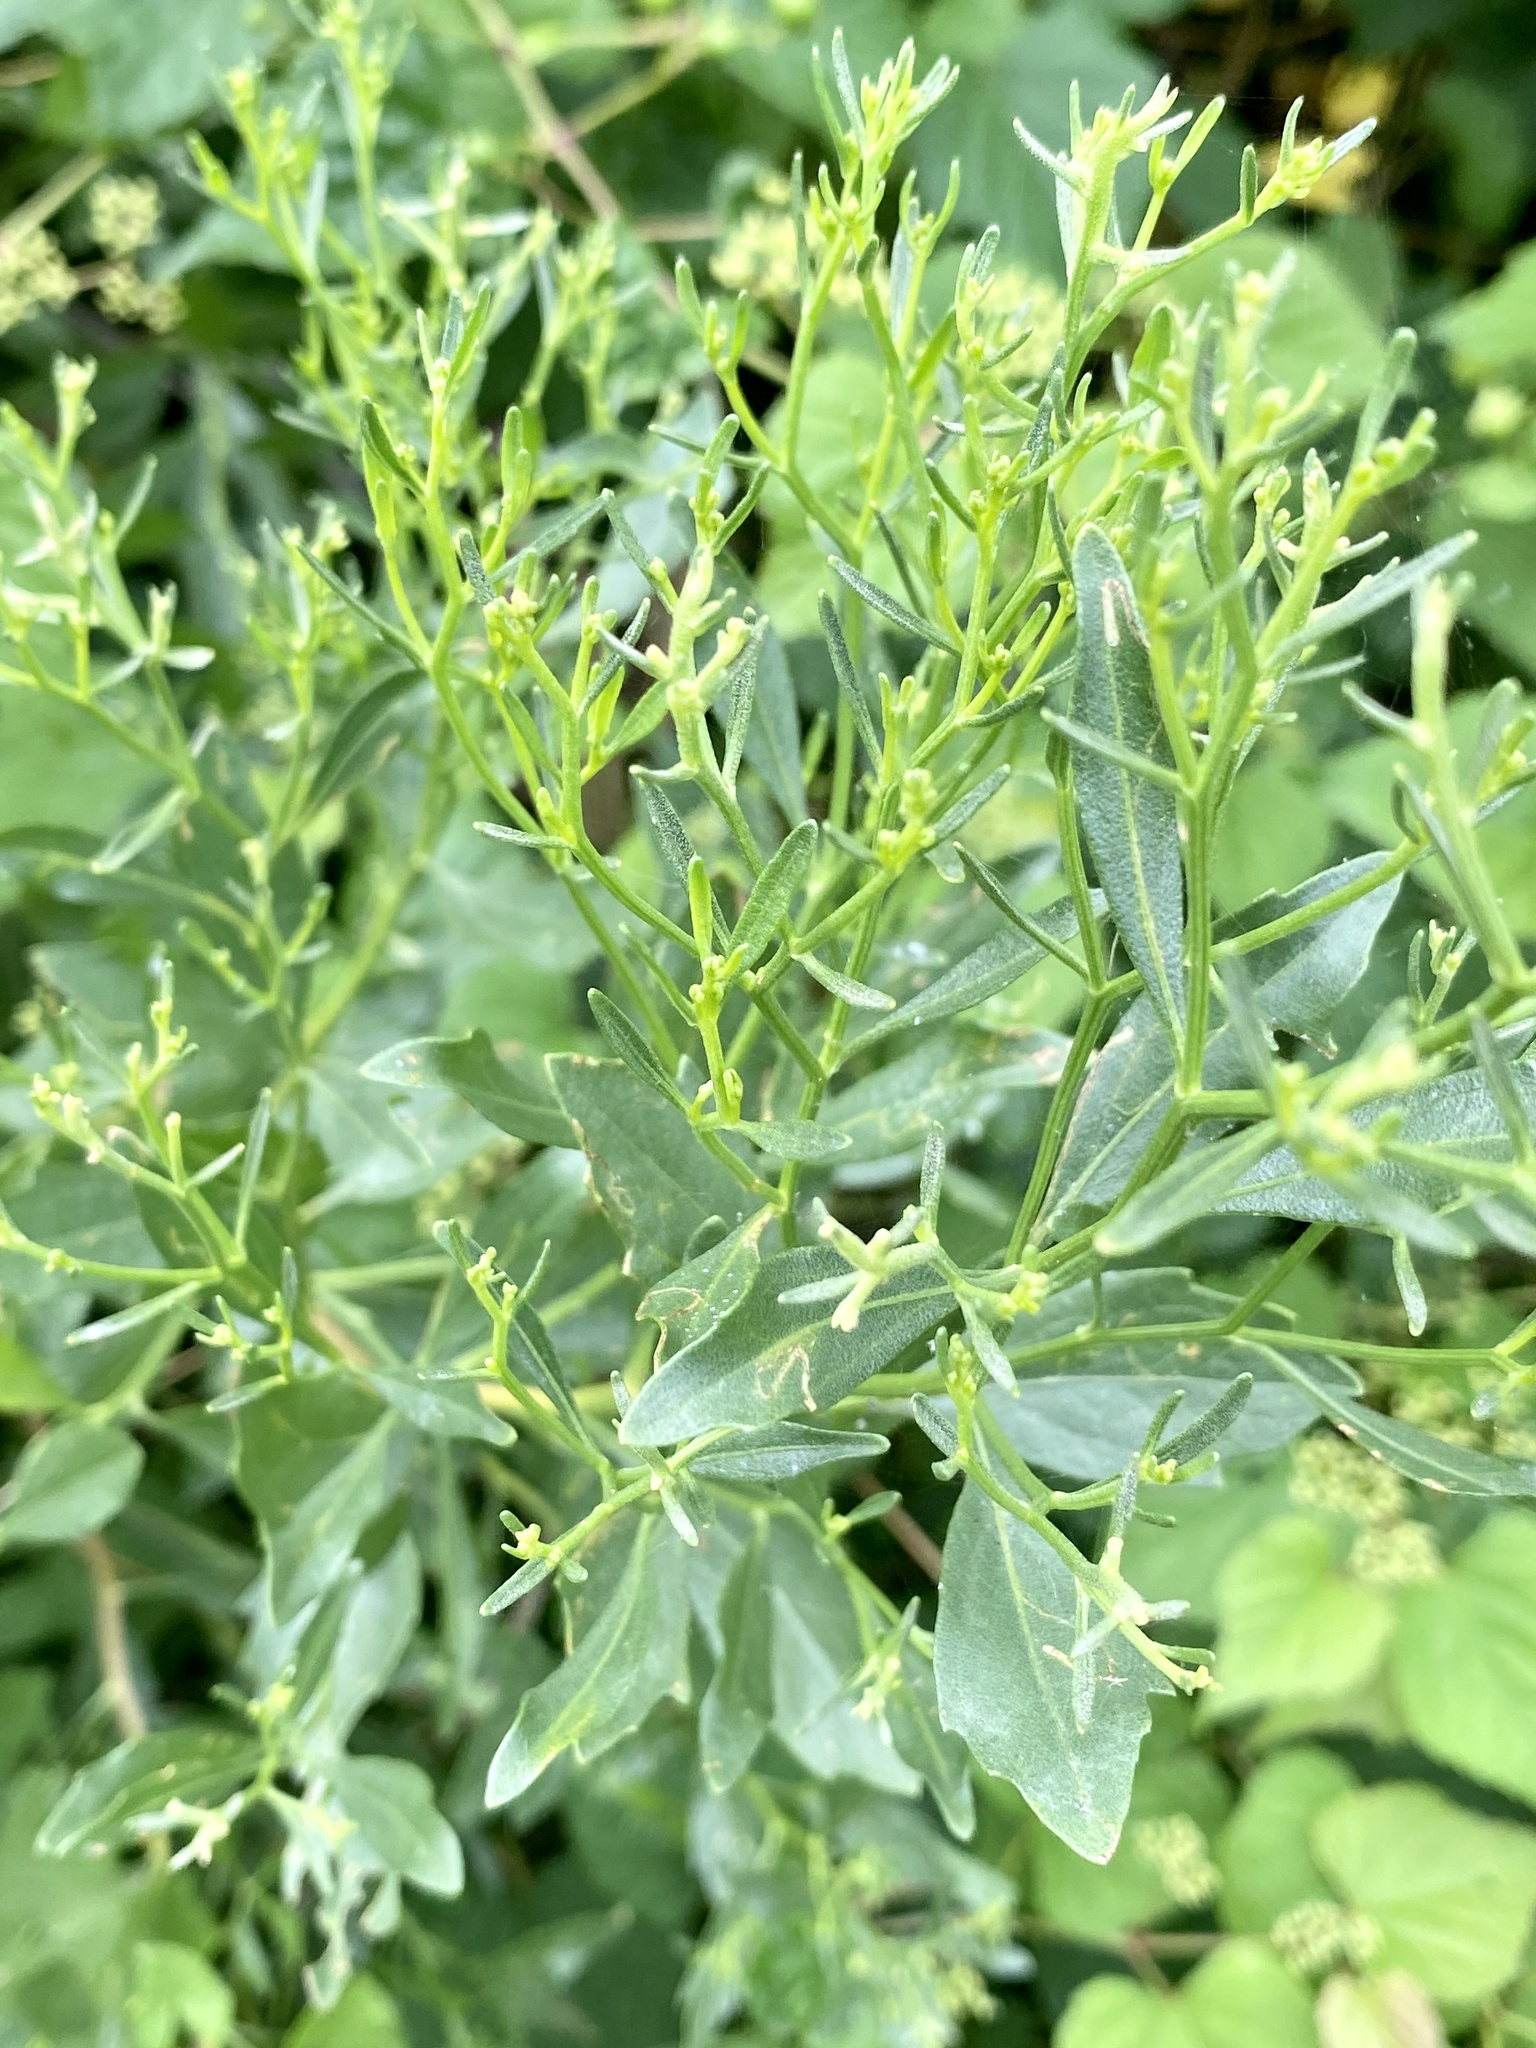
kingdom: Plantae
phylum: Tracheophyta
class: Magnoliopsida
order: Asterales
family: Asteraceae
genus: Baccharis
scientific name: Baccharis halimifolia
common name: Eastern baccharis
